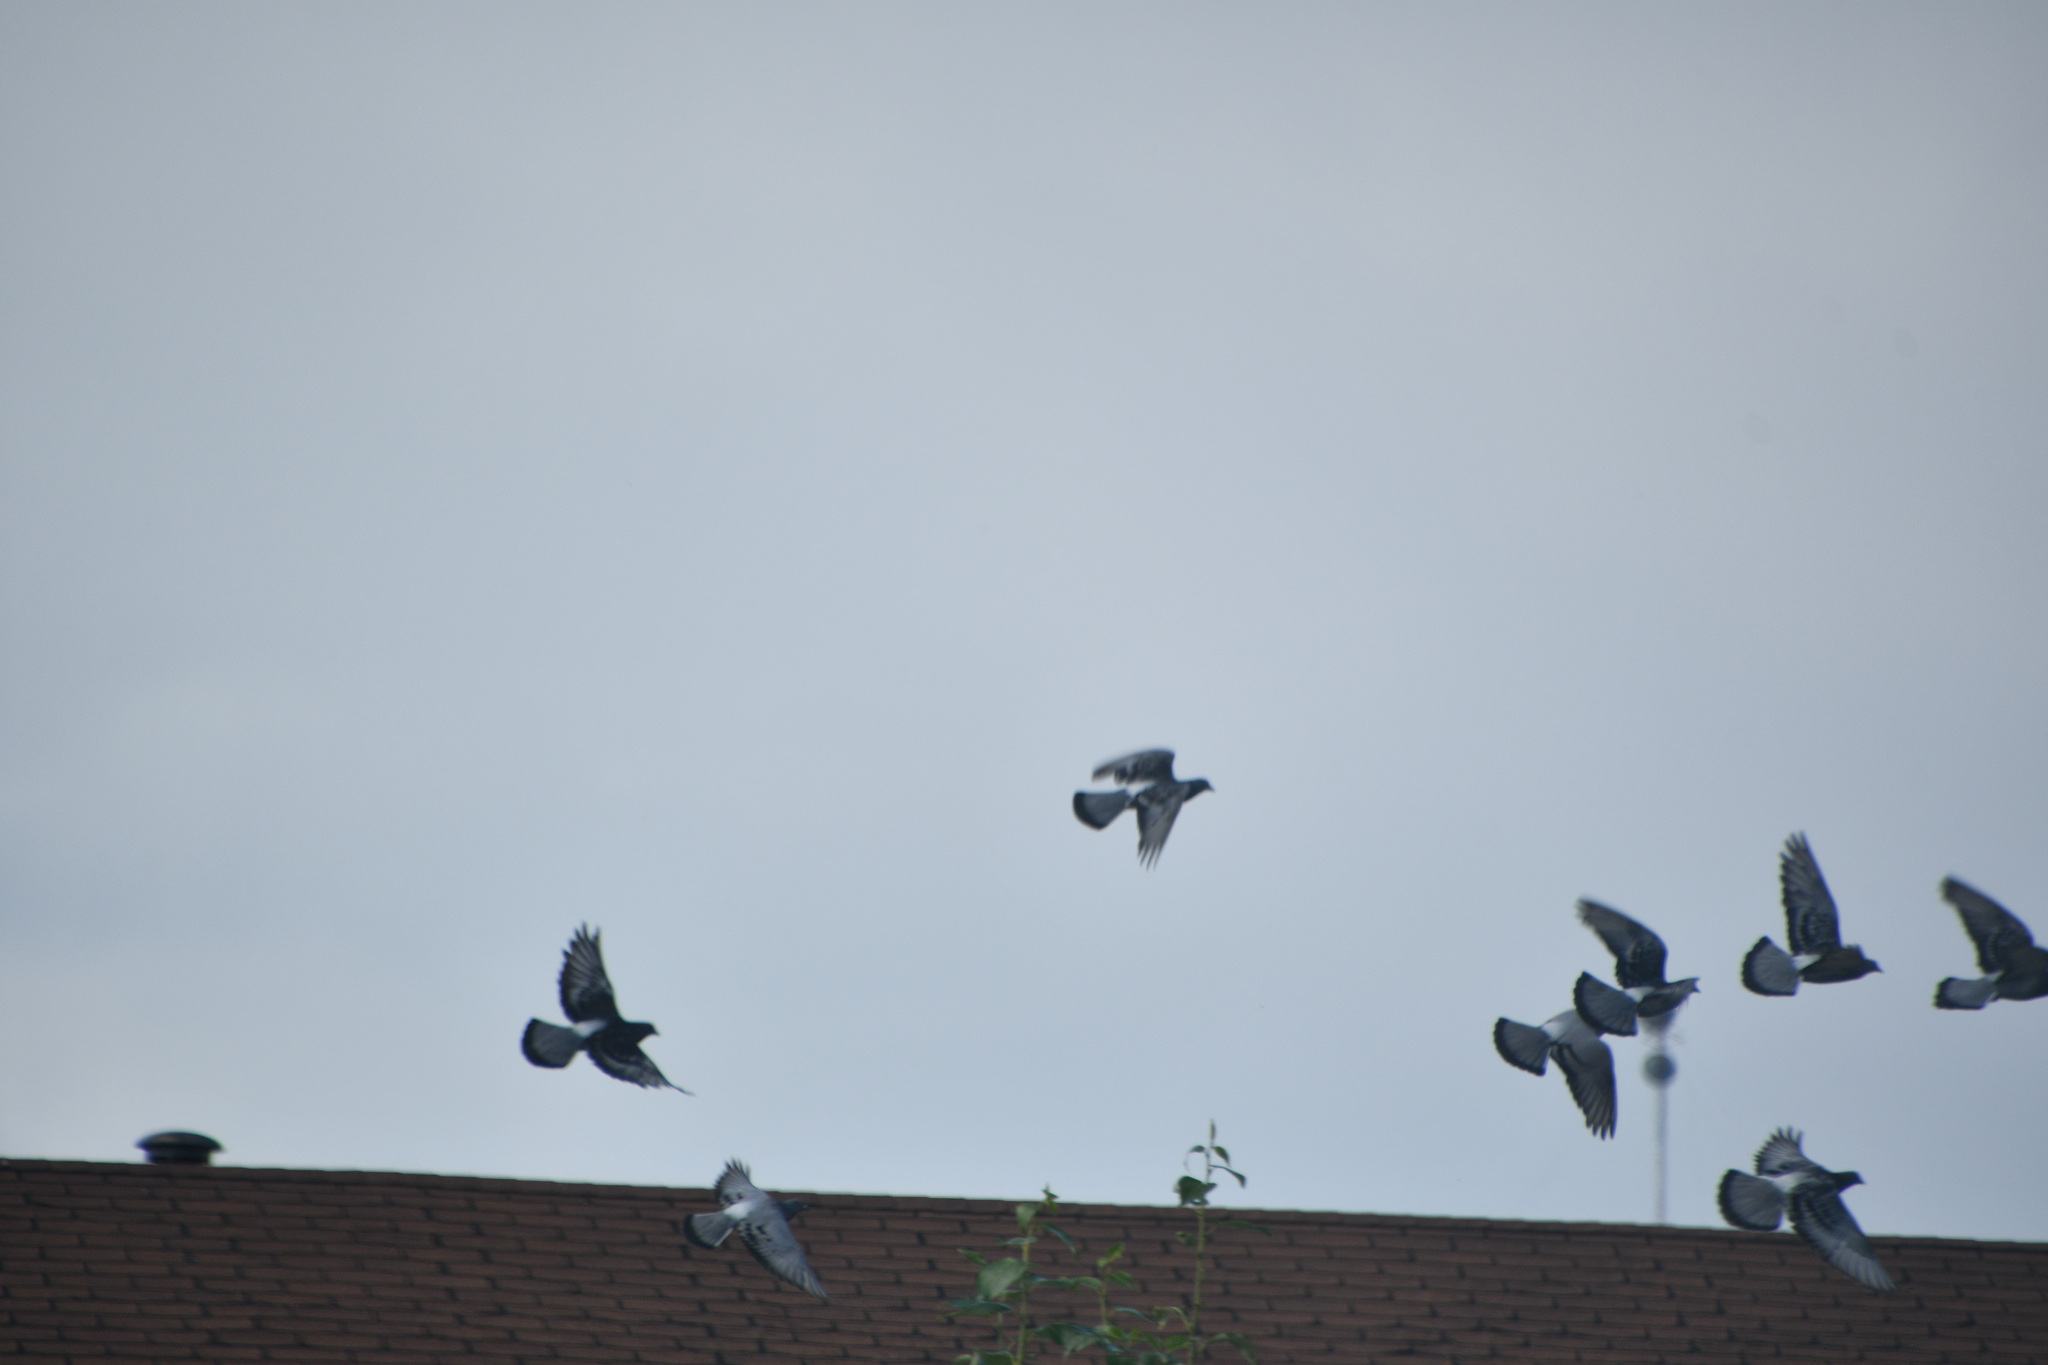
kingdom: Animalia
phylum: Chordata
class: Aves
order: Columbiformes
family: Columbidae
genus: Columba
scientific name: Columba livia
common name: Rock pigeon
